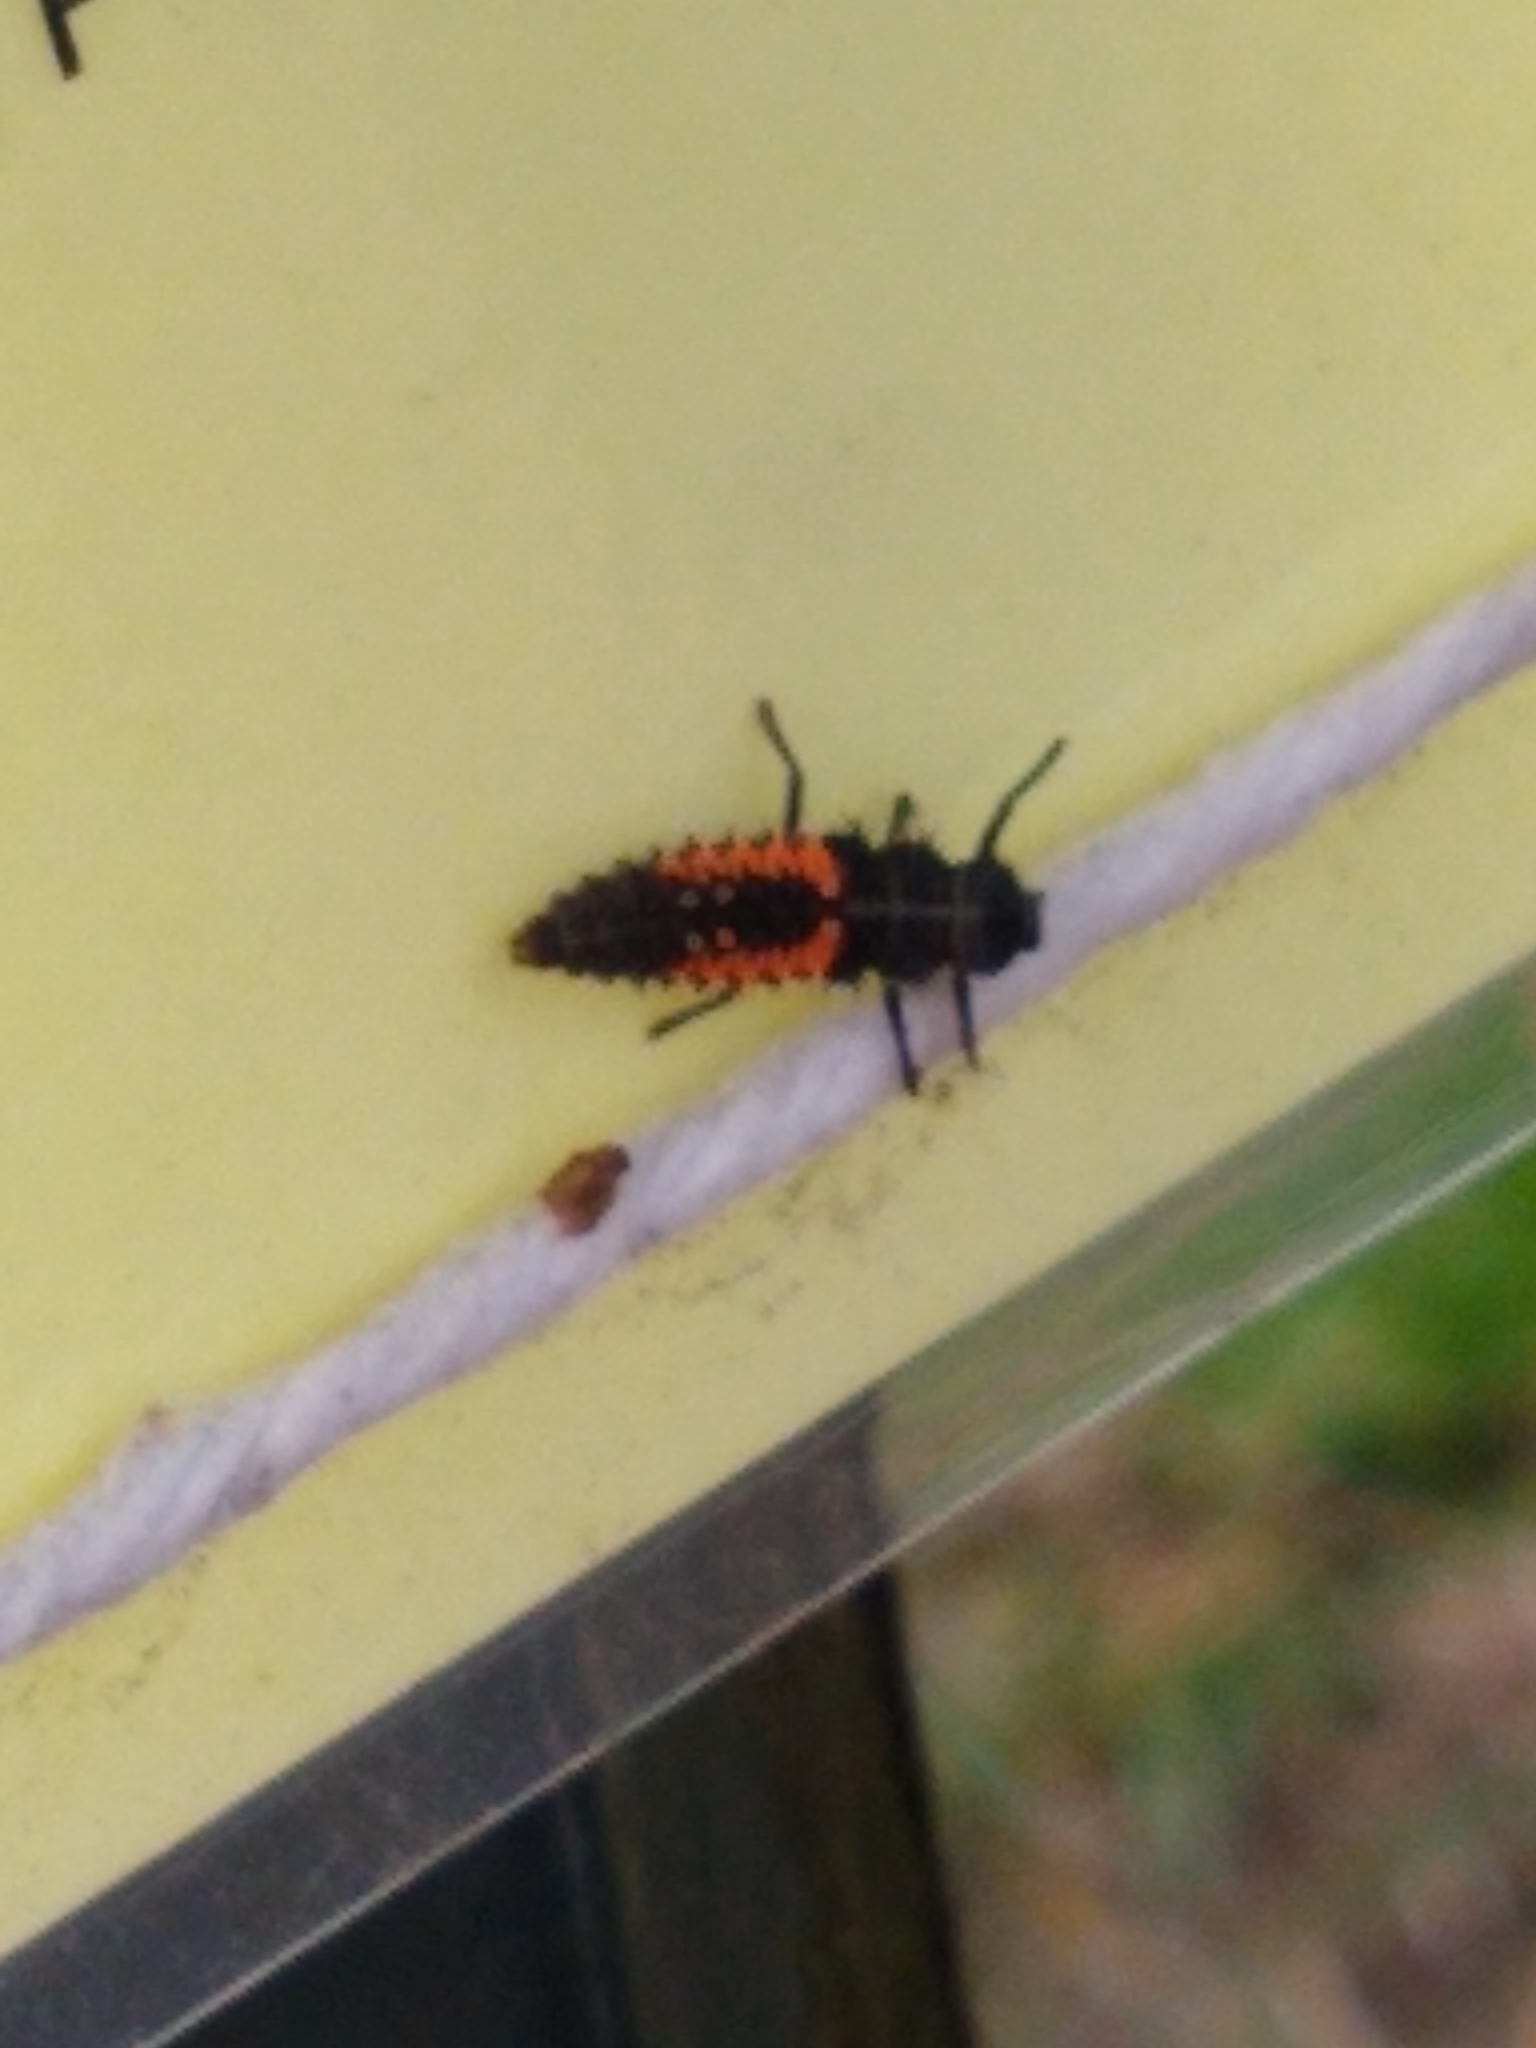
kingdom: Animalia
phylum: Arthropoda
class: Insecta
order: Coleoptera
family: Coccinellidae
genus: Harmonia
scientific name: Harmonia axyridis
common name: Harlequin ladybird
